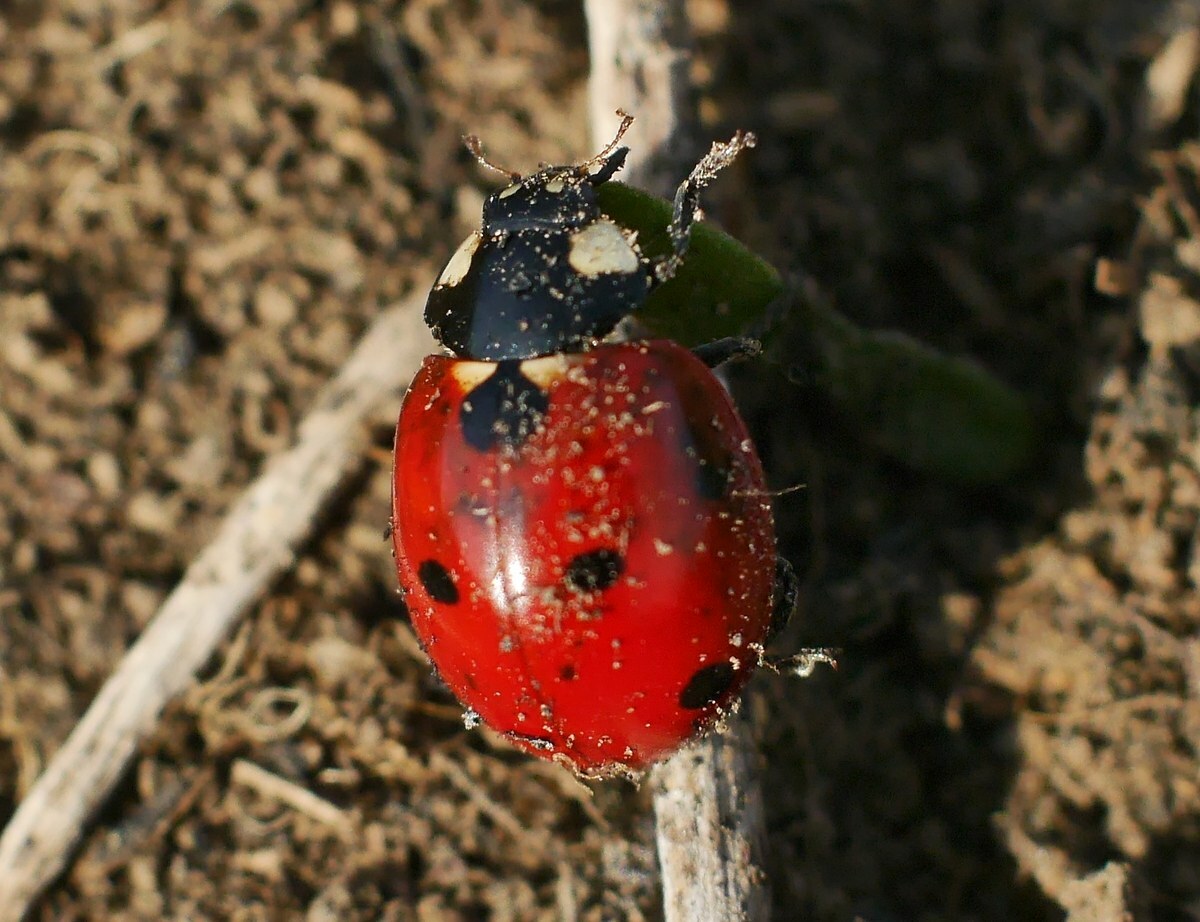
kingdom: Animalia
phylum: Arthropoda
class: Insecta
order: Coleoptera
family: Coccinellidae
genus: Coccinella
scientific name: Coccinella septempunctata
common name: Sevenspotted lady beetle
